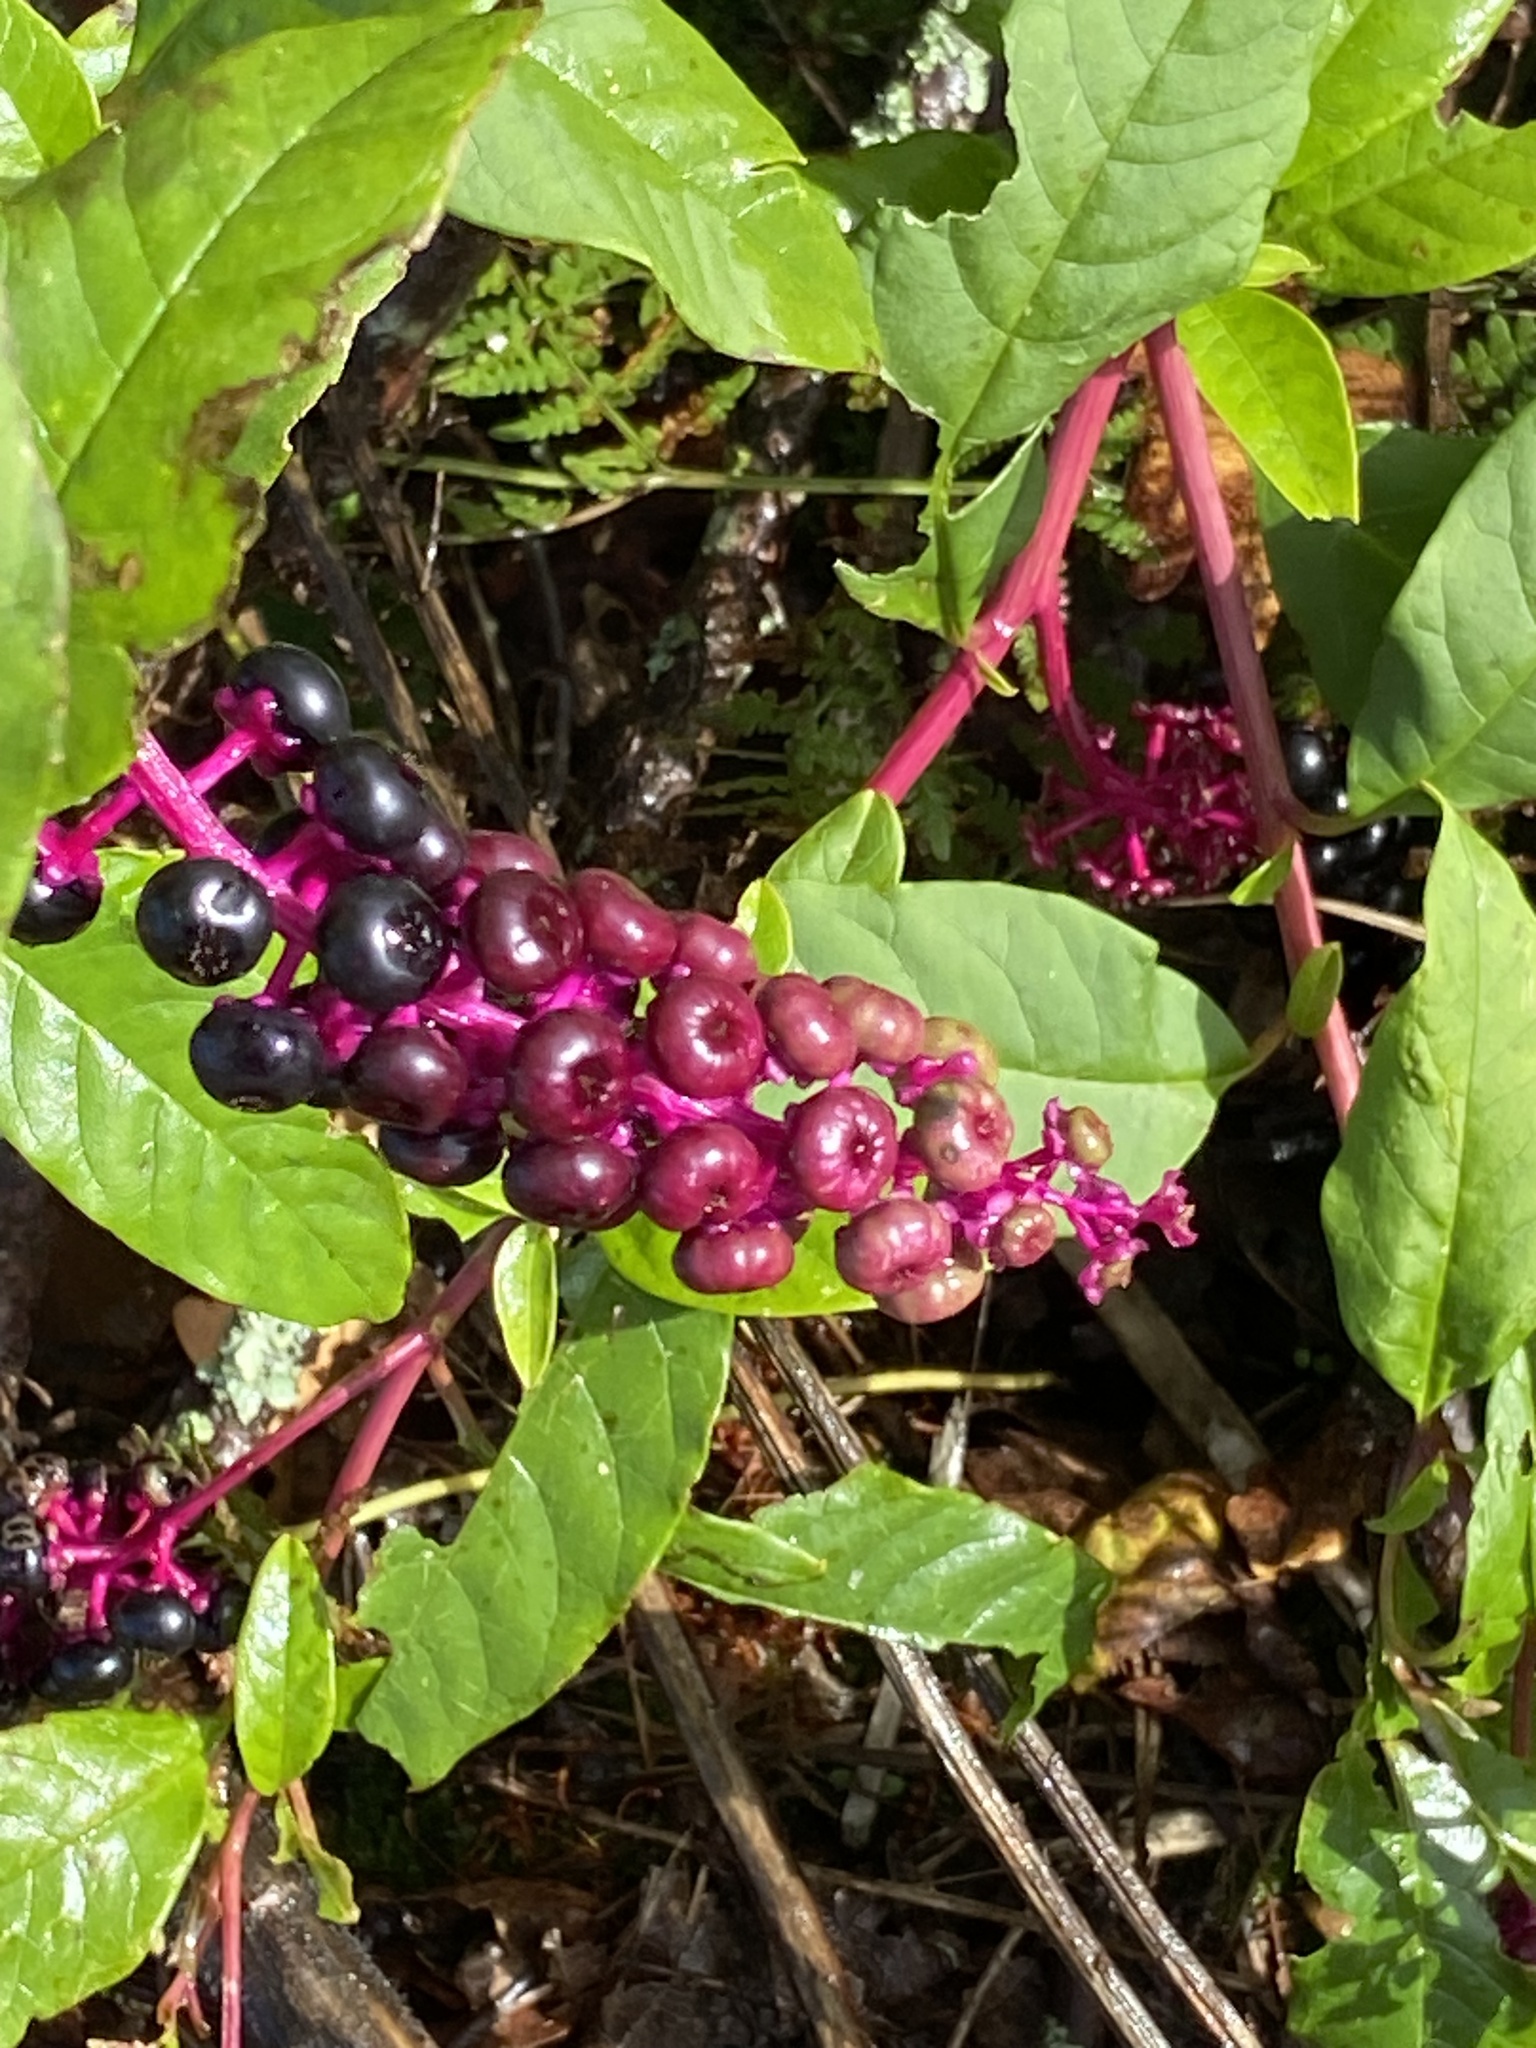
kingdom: Plantae
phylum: Tracheophyta
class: Magnoliopsida
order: Caryophyllales
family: Phytolaccaceae
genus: Phytolacca
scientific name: Phytolacca americana
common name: American pokeweed
